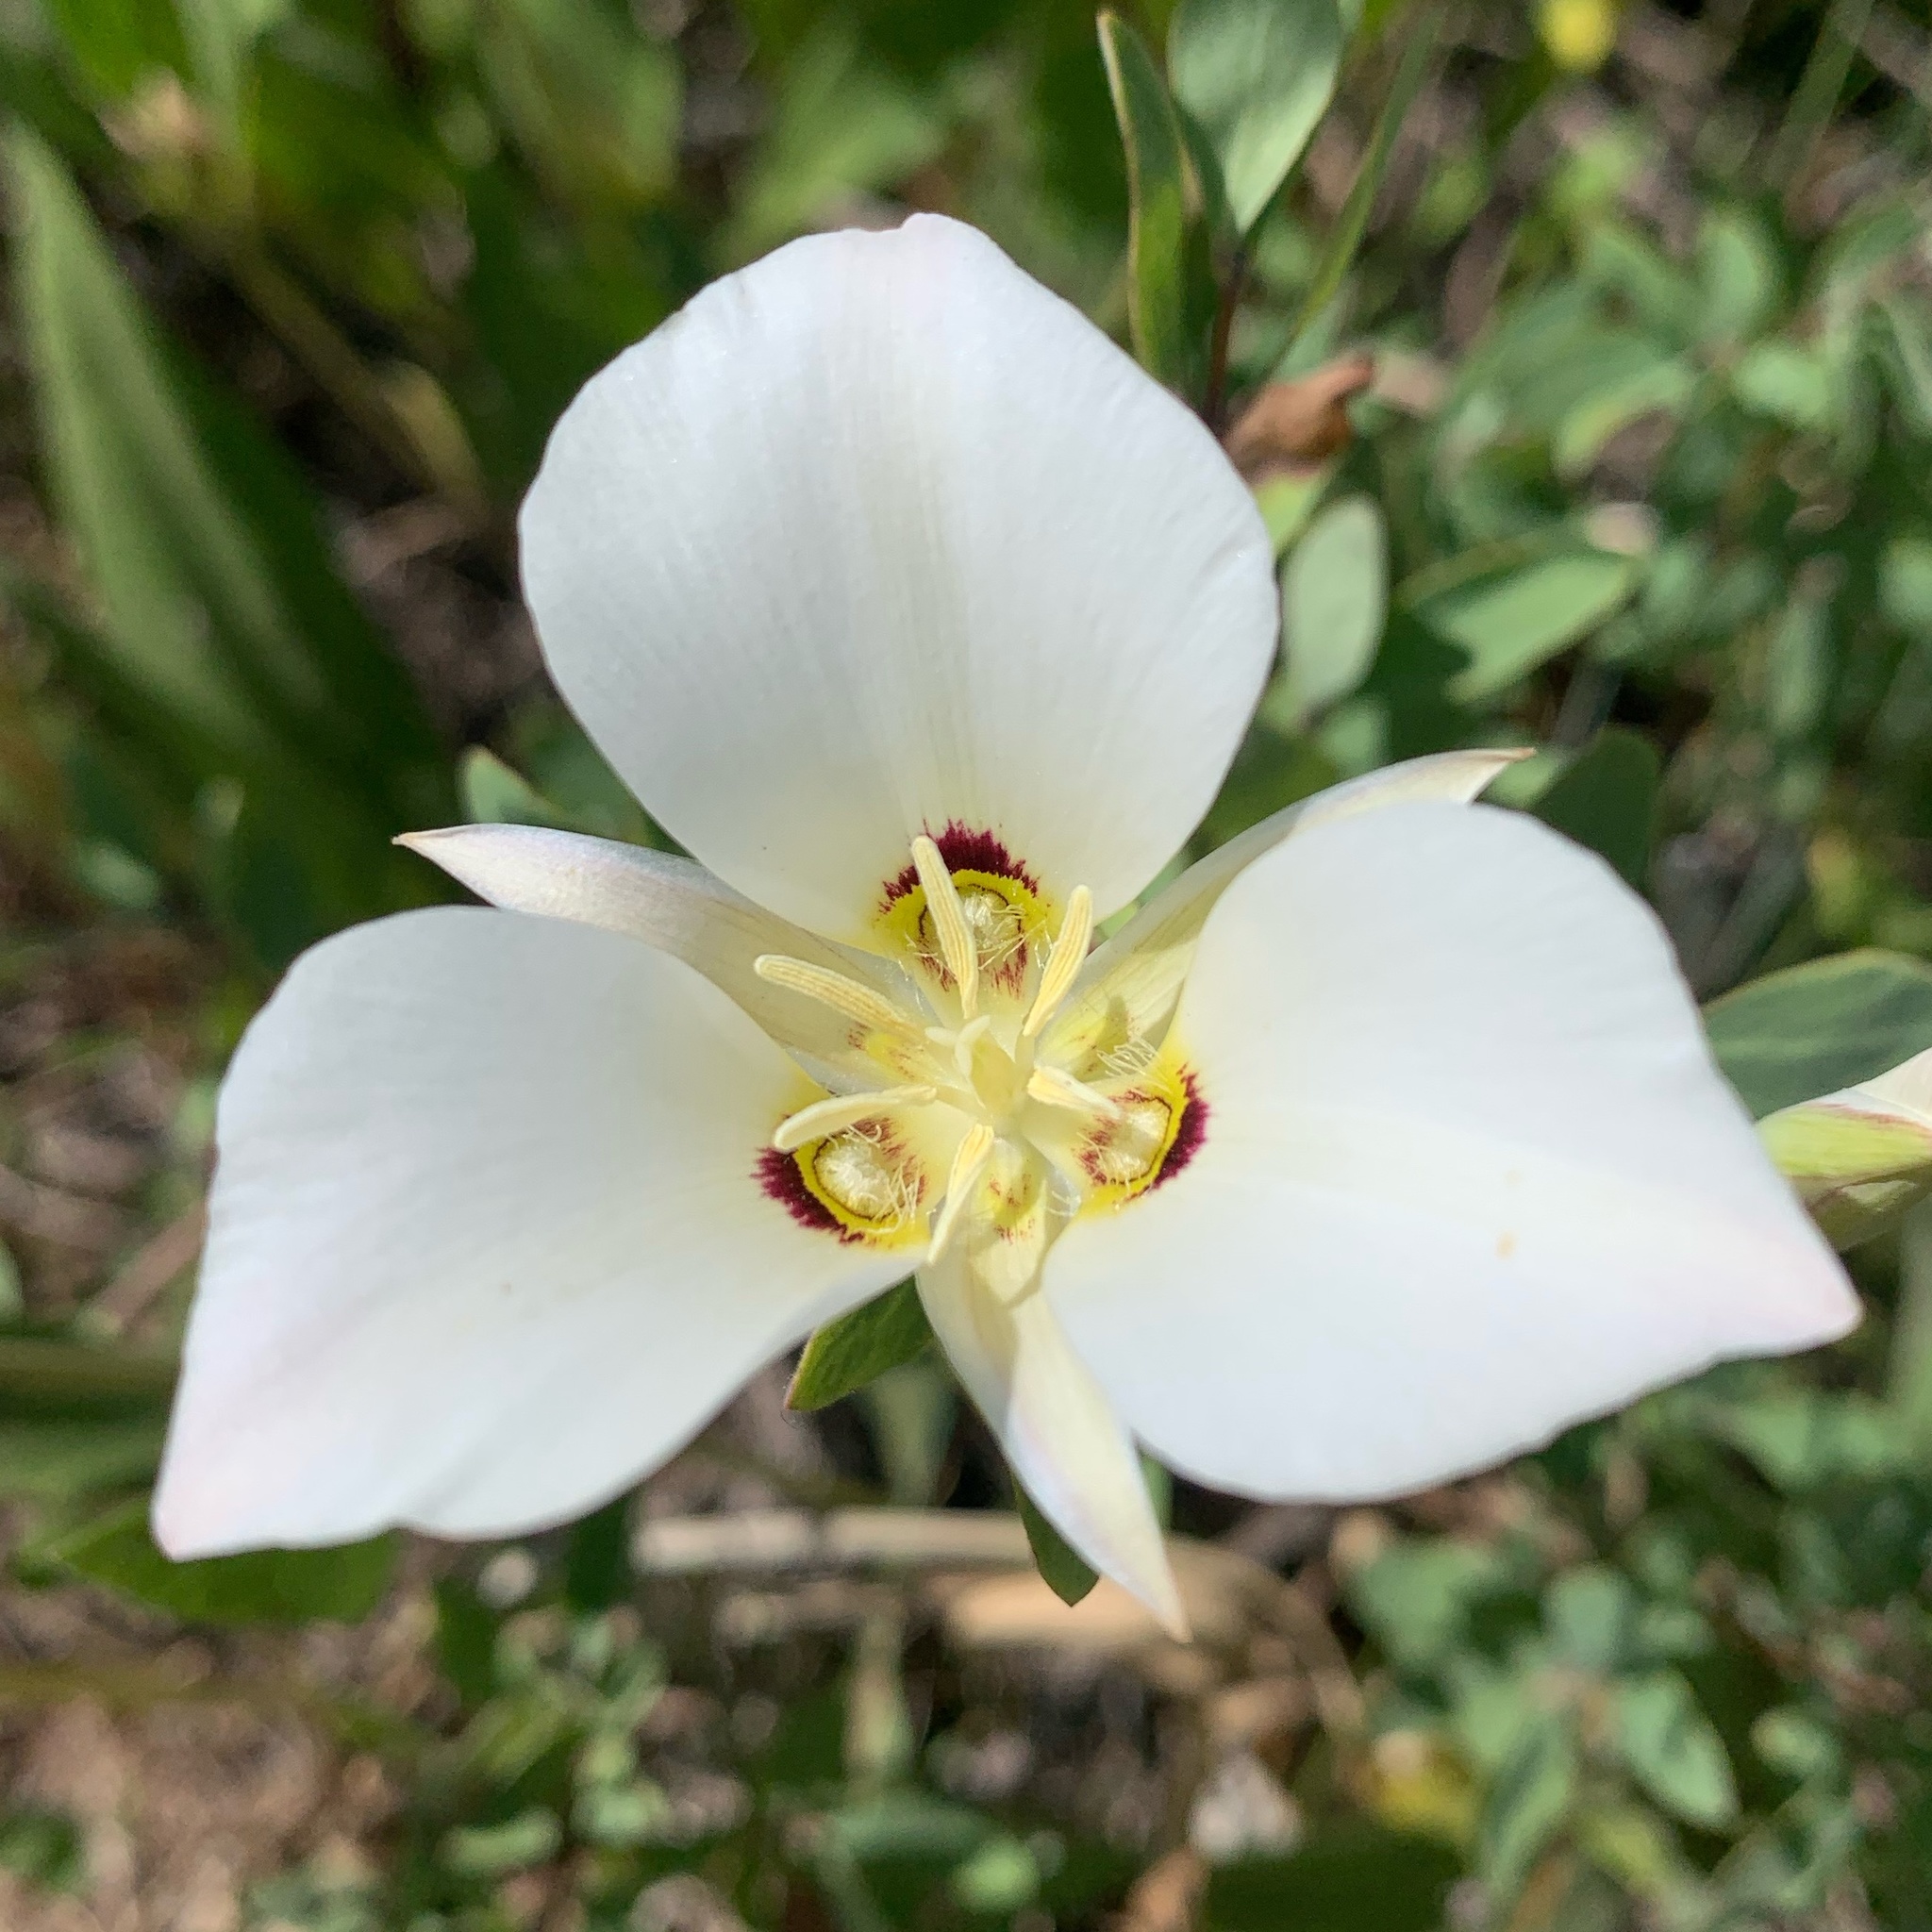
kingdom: Plantae
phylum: Tracheophyta
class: Liliopsida
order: Liliales
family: Liliaceae
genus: Calochortus
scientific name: Calochortus nuttallii
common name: Sego-lily
